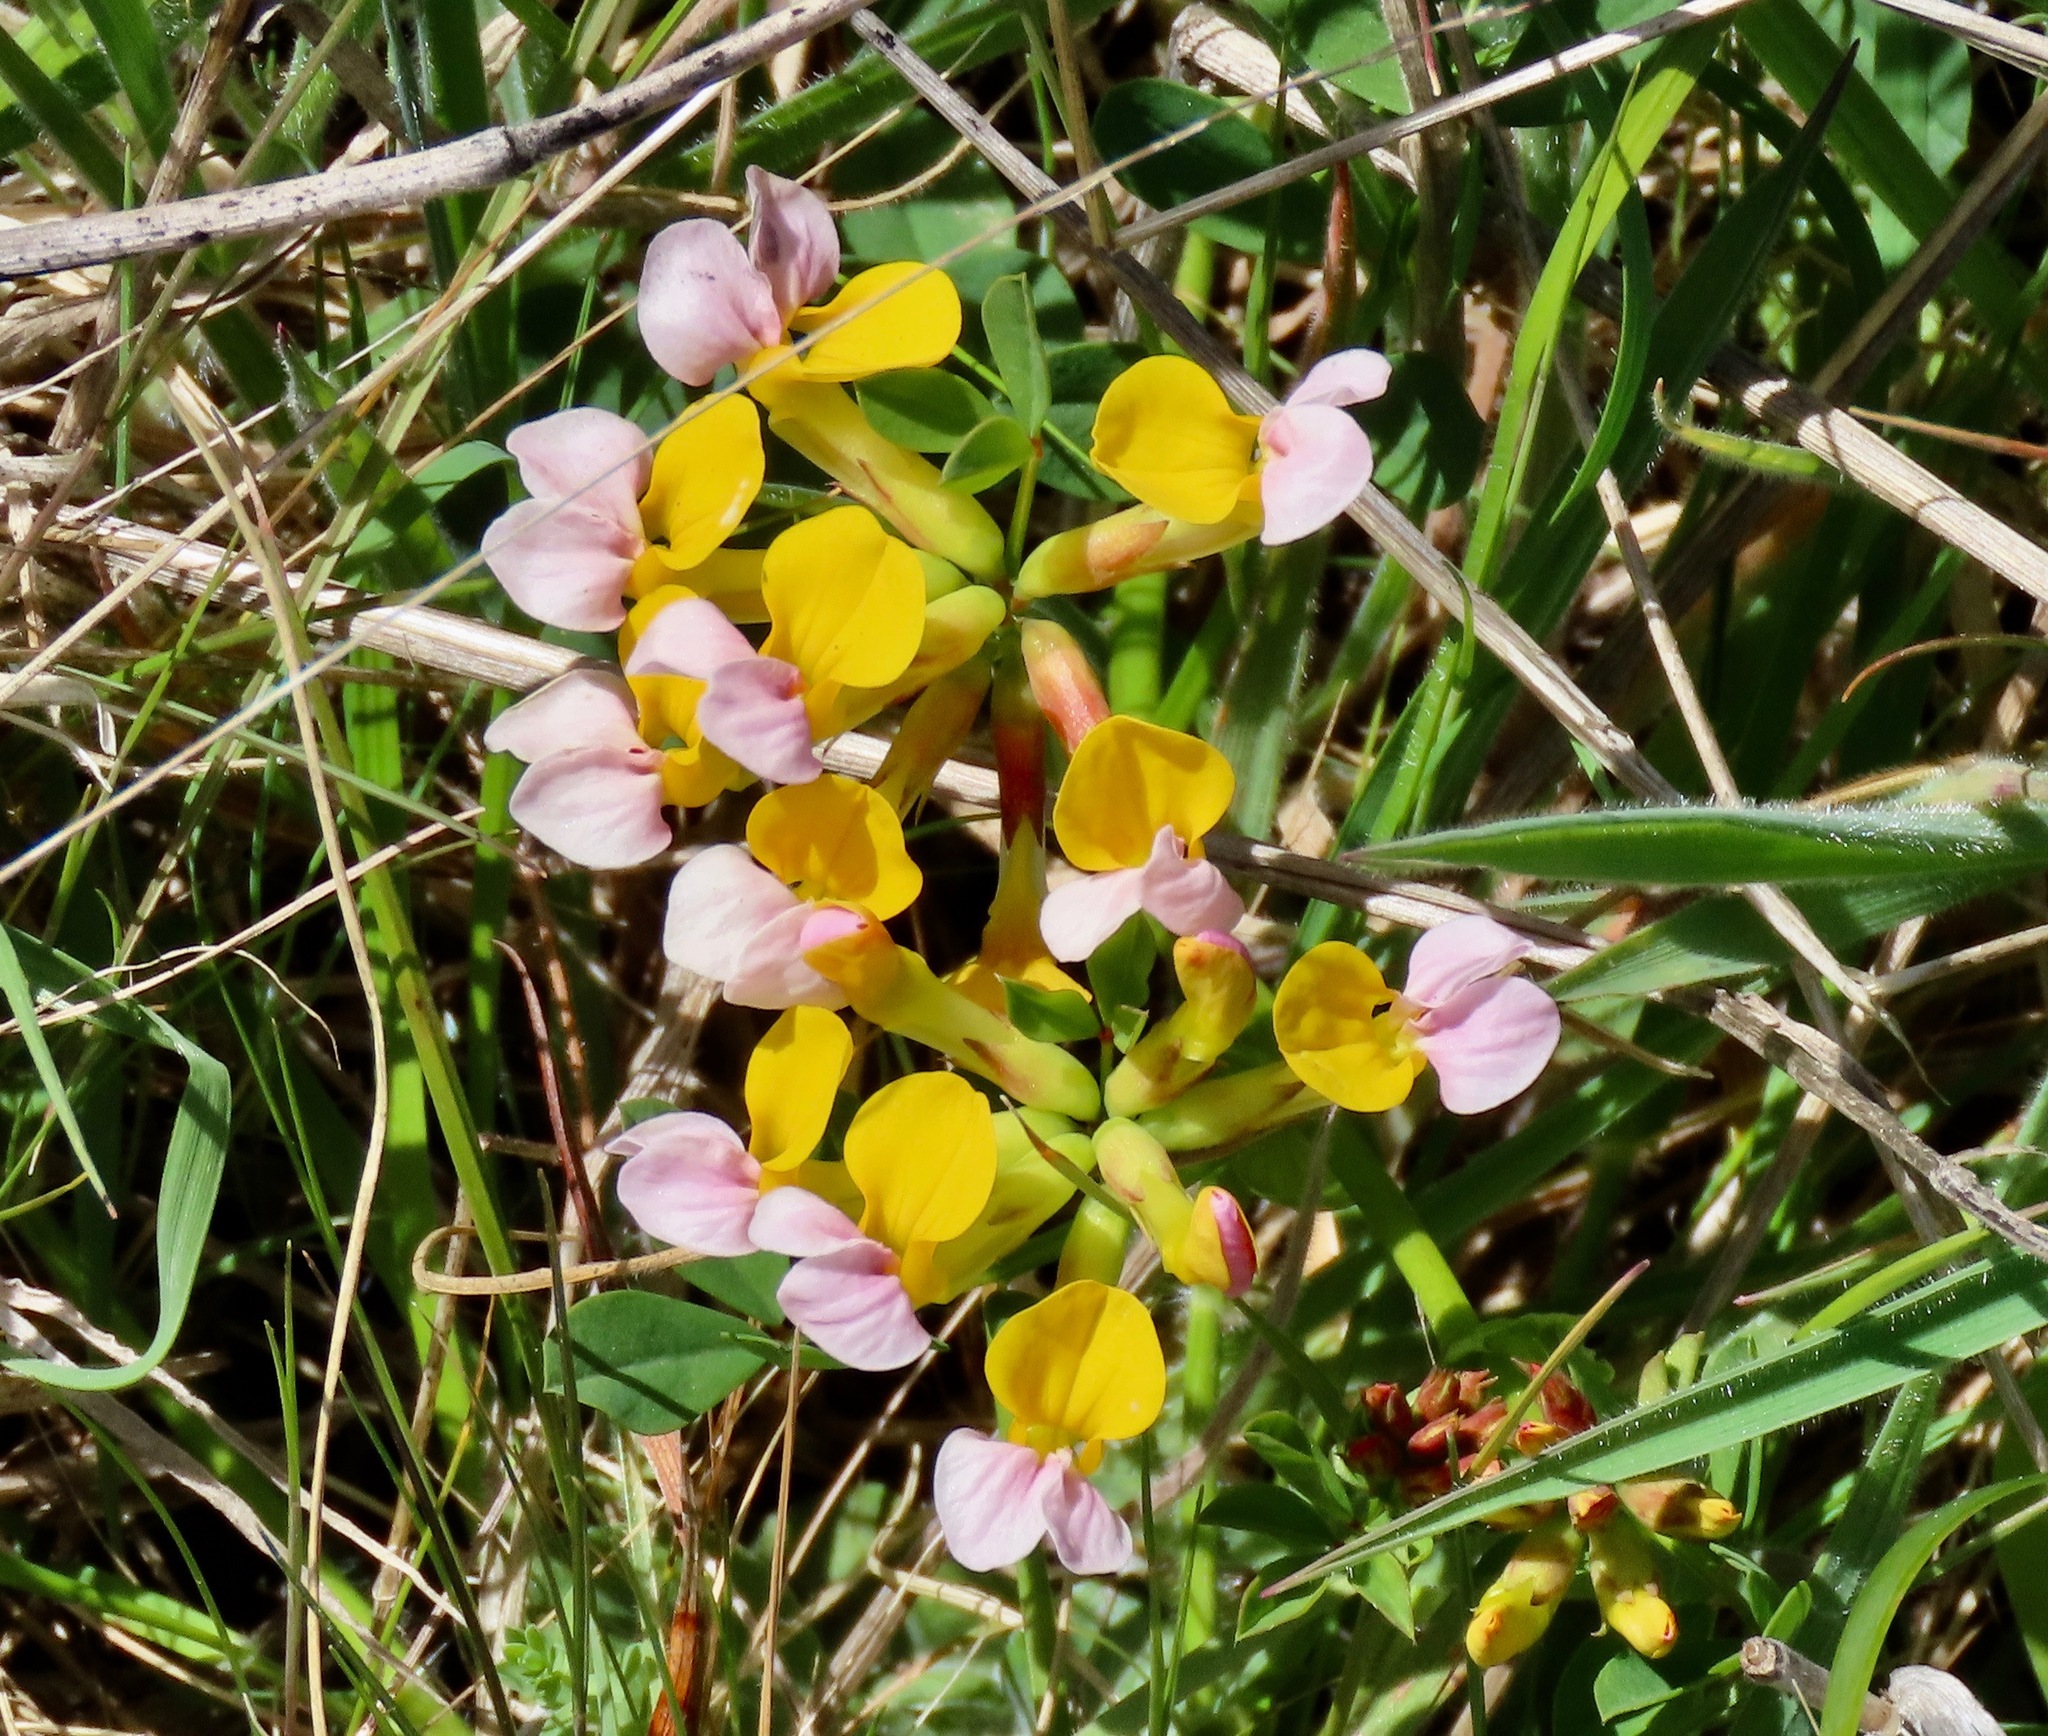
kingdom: Plantae
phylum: Tracheophyta
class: Magnoliopsida
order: Fabales
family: Fabaceae
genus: Hosackia
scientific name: Hosackia gracilis
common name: Seaside bird's-foot lotus
